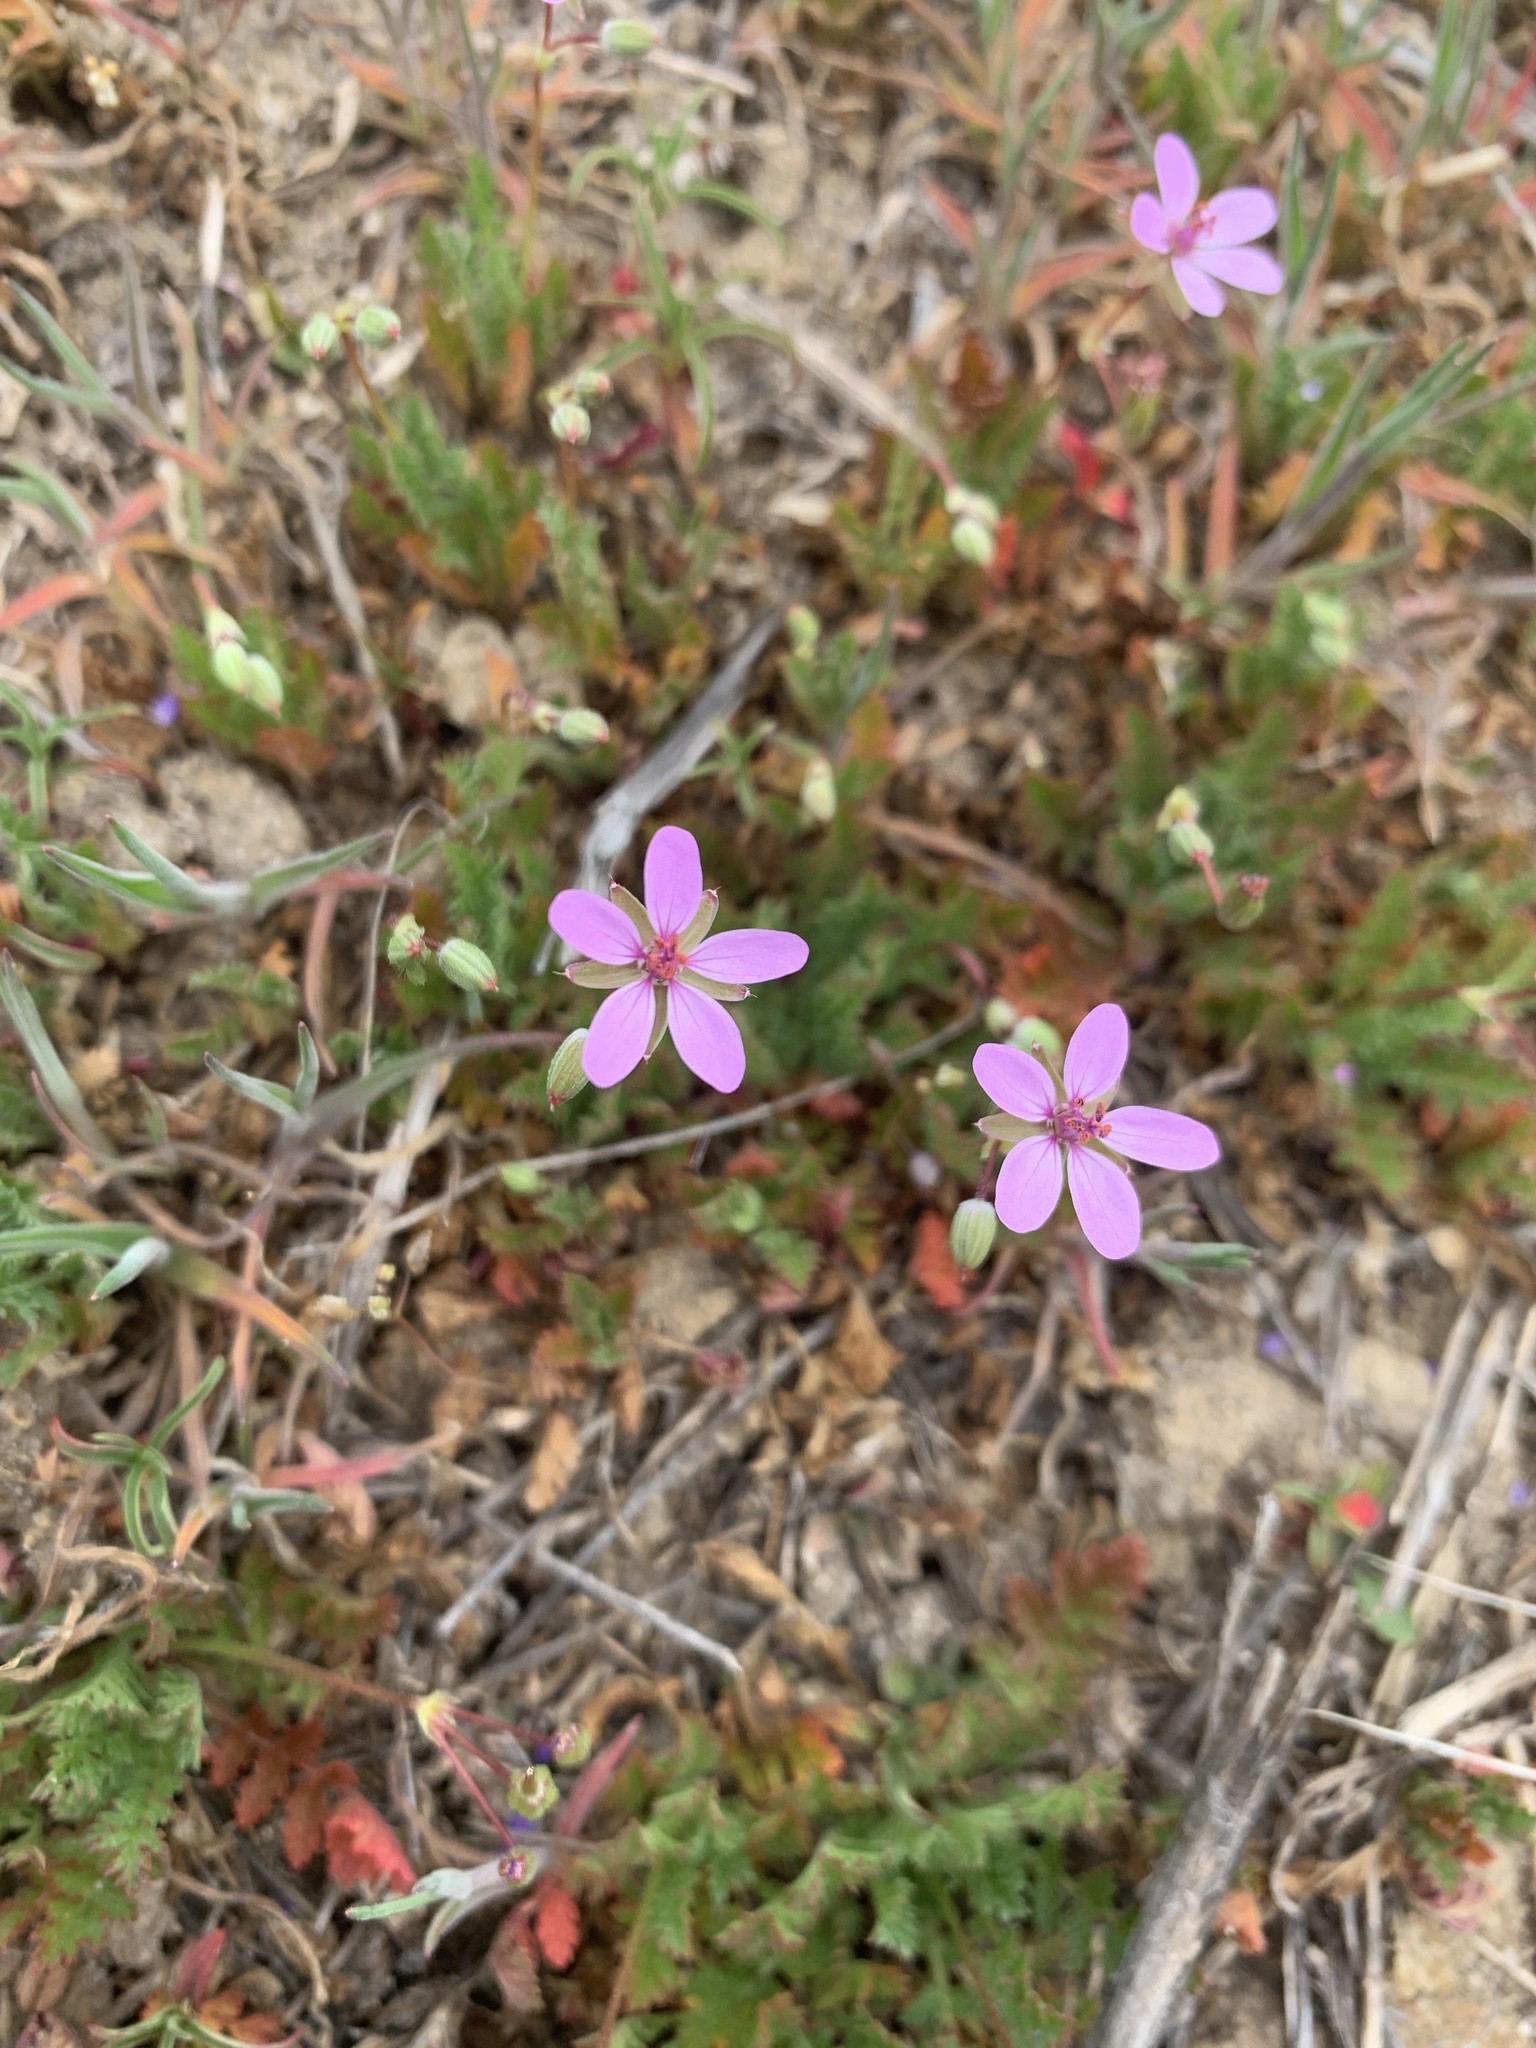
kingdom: Plantae
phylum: Tracheophyta
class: Magnoliopsida
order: Geraniales
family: Geraniaceae
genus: Erodium
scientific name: Erodium cicutarium
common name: Common stork's-bill
